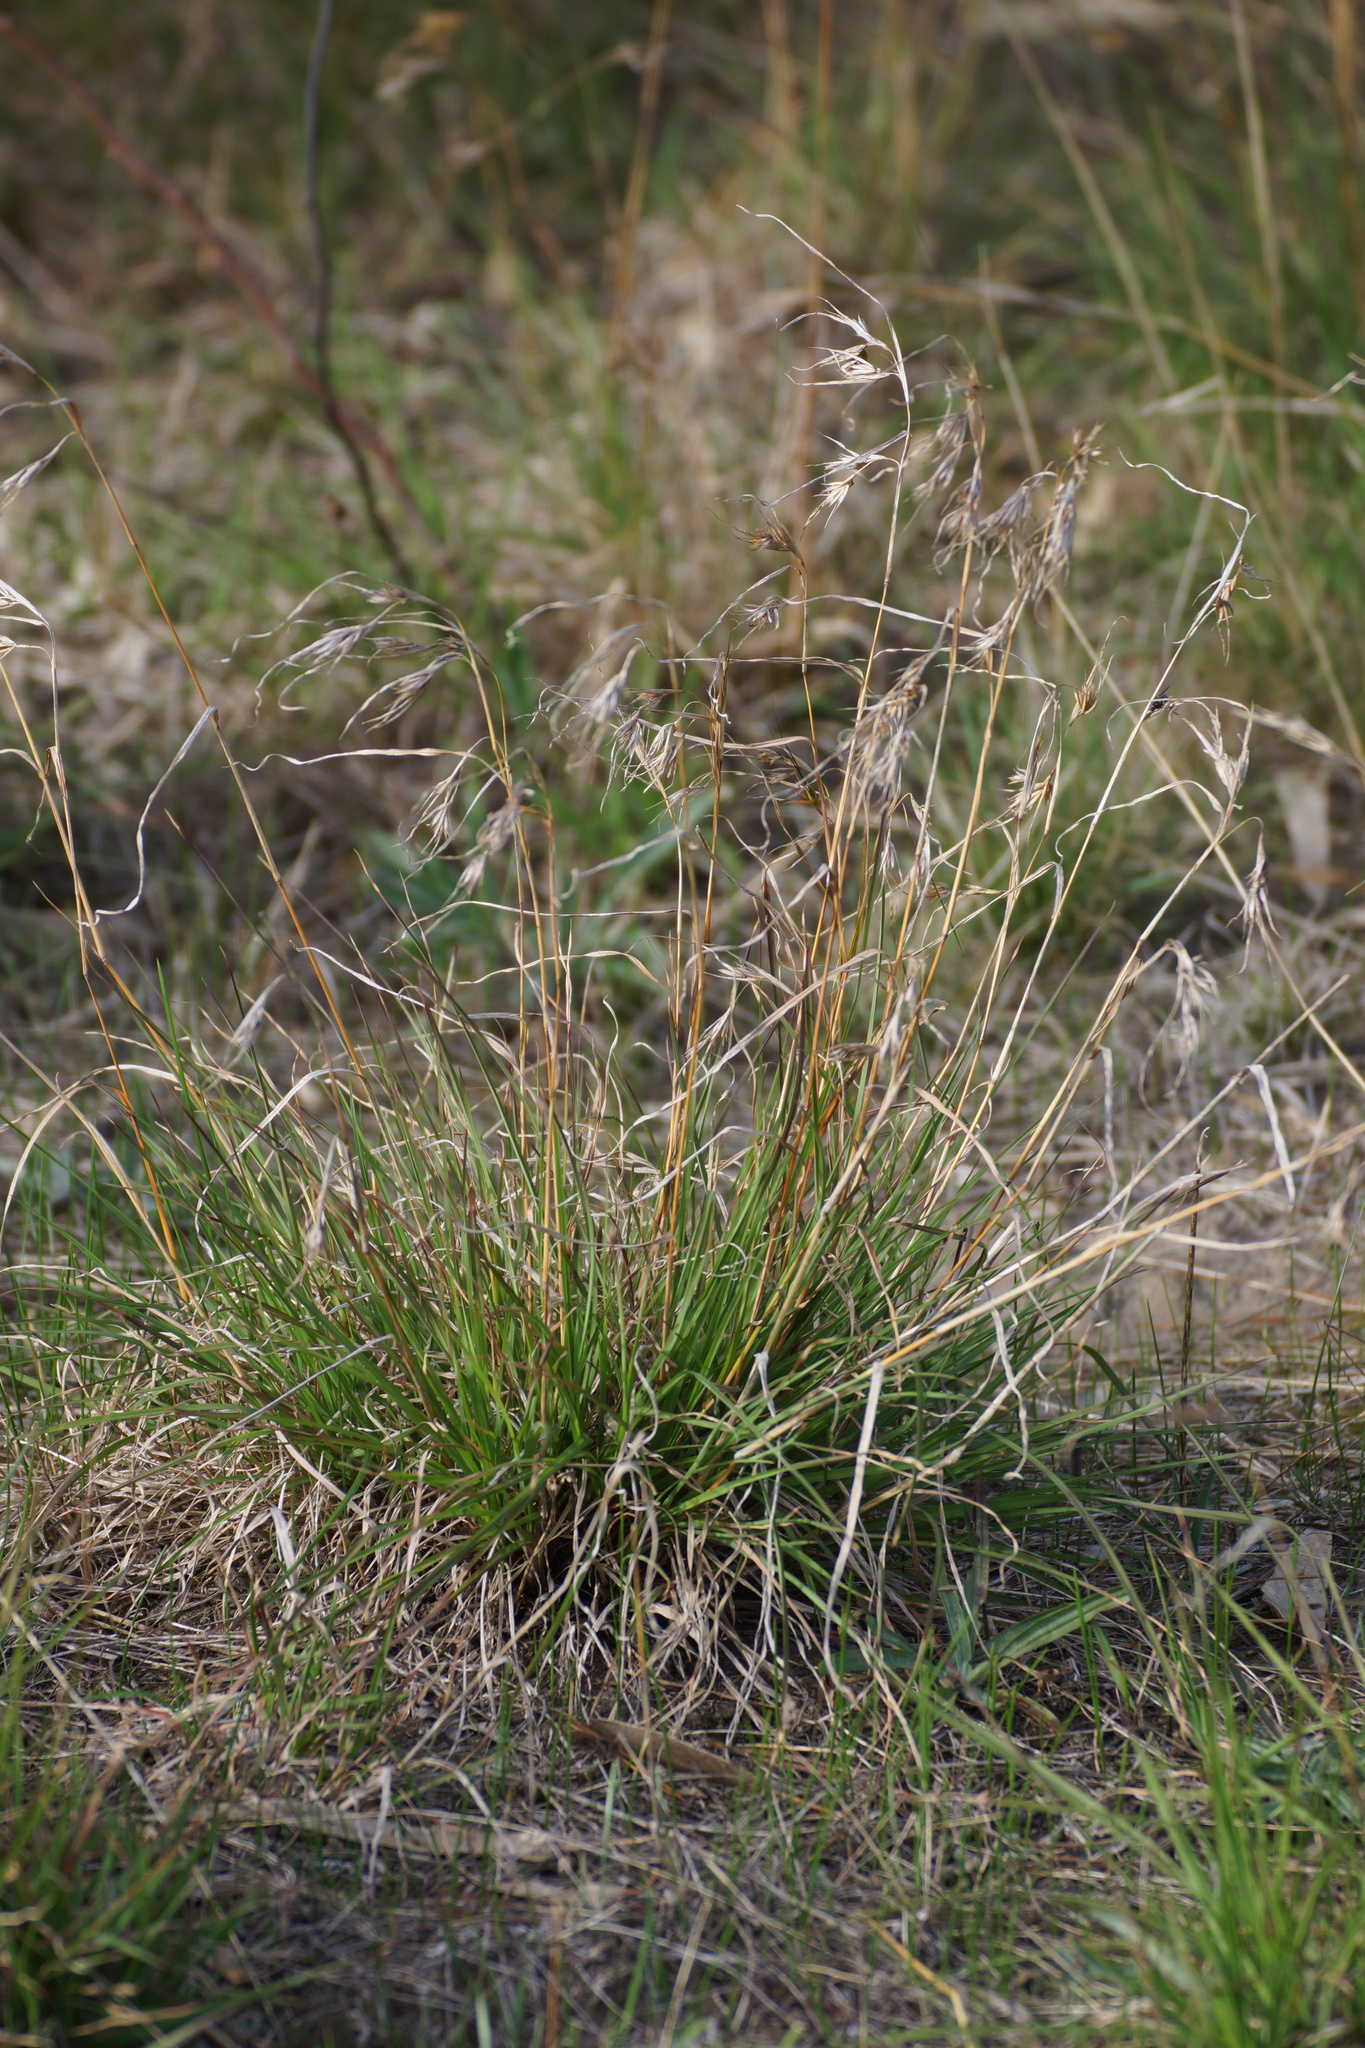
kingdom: Plantae
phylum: Tracheophyta
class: Liliopsida
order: Poales
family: Poaceae
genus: Themeda
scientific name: Themeda triandra
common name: Kangaroo grass
